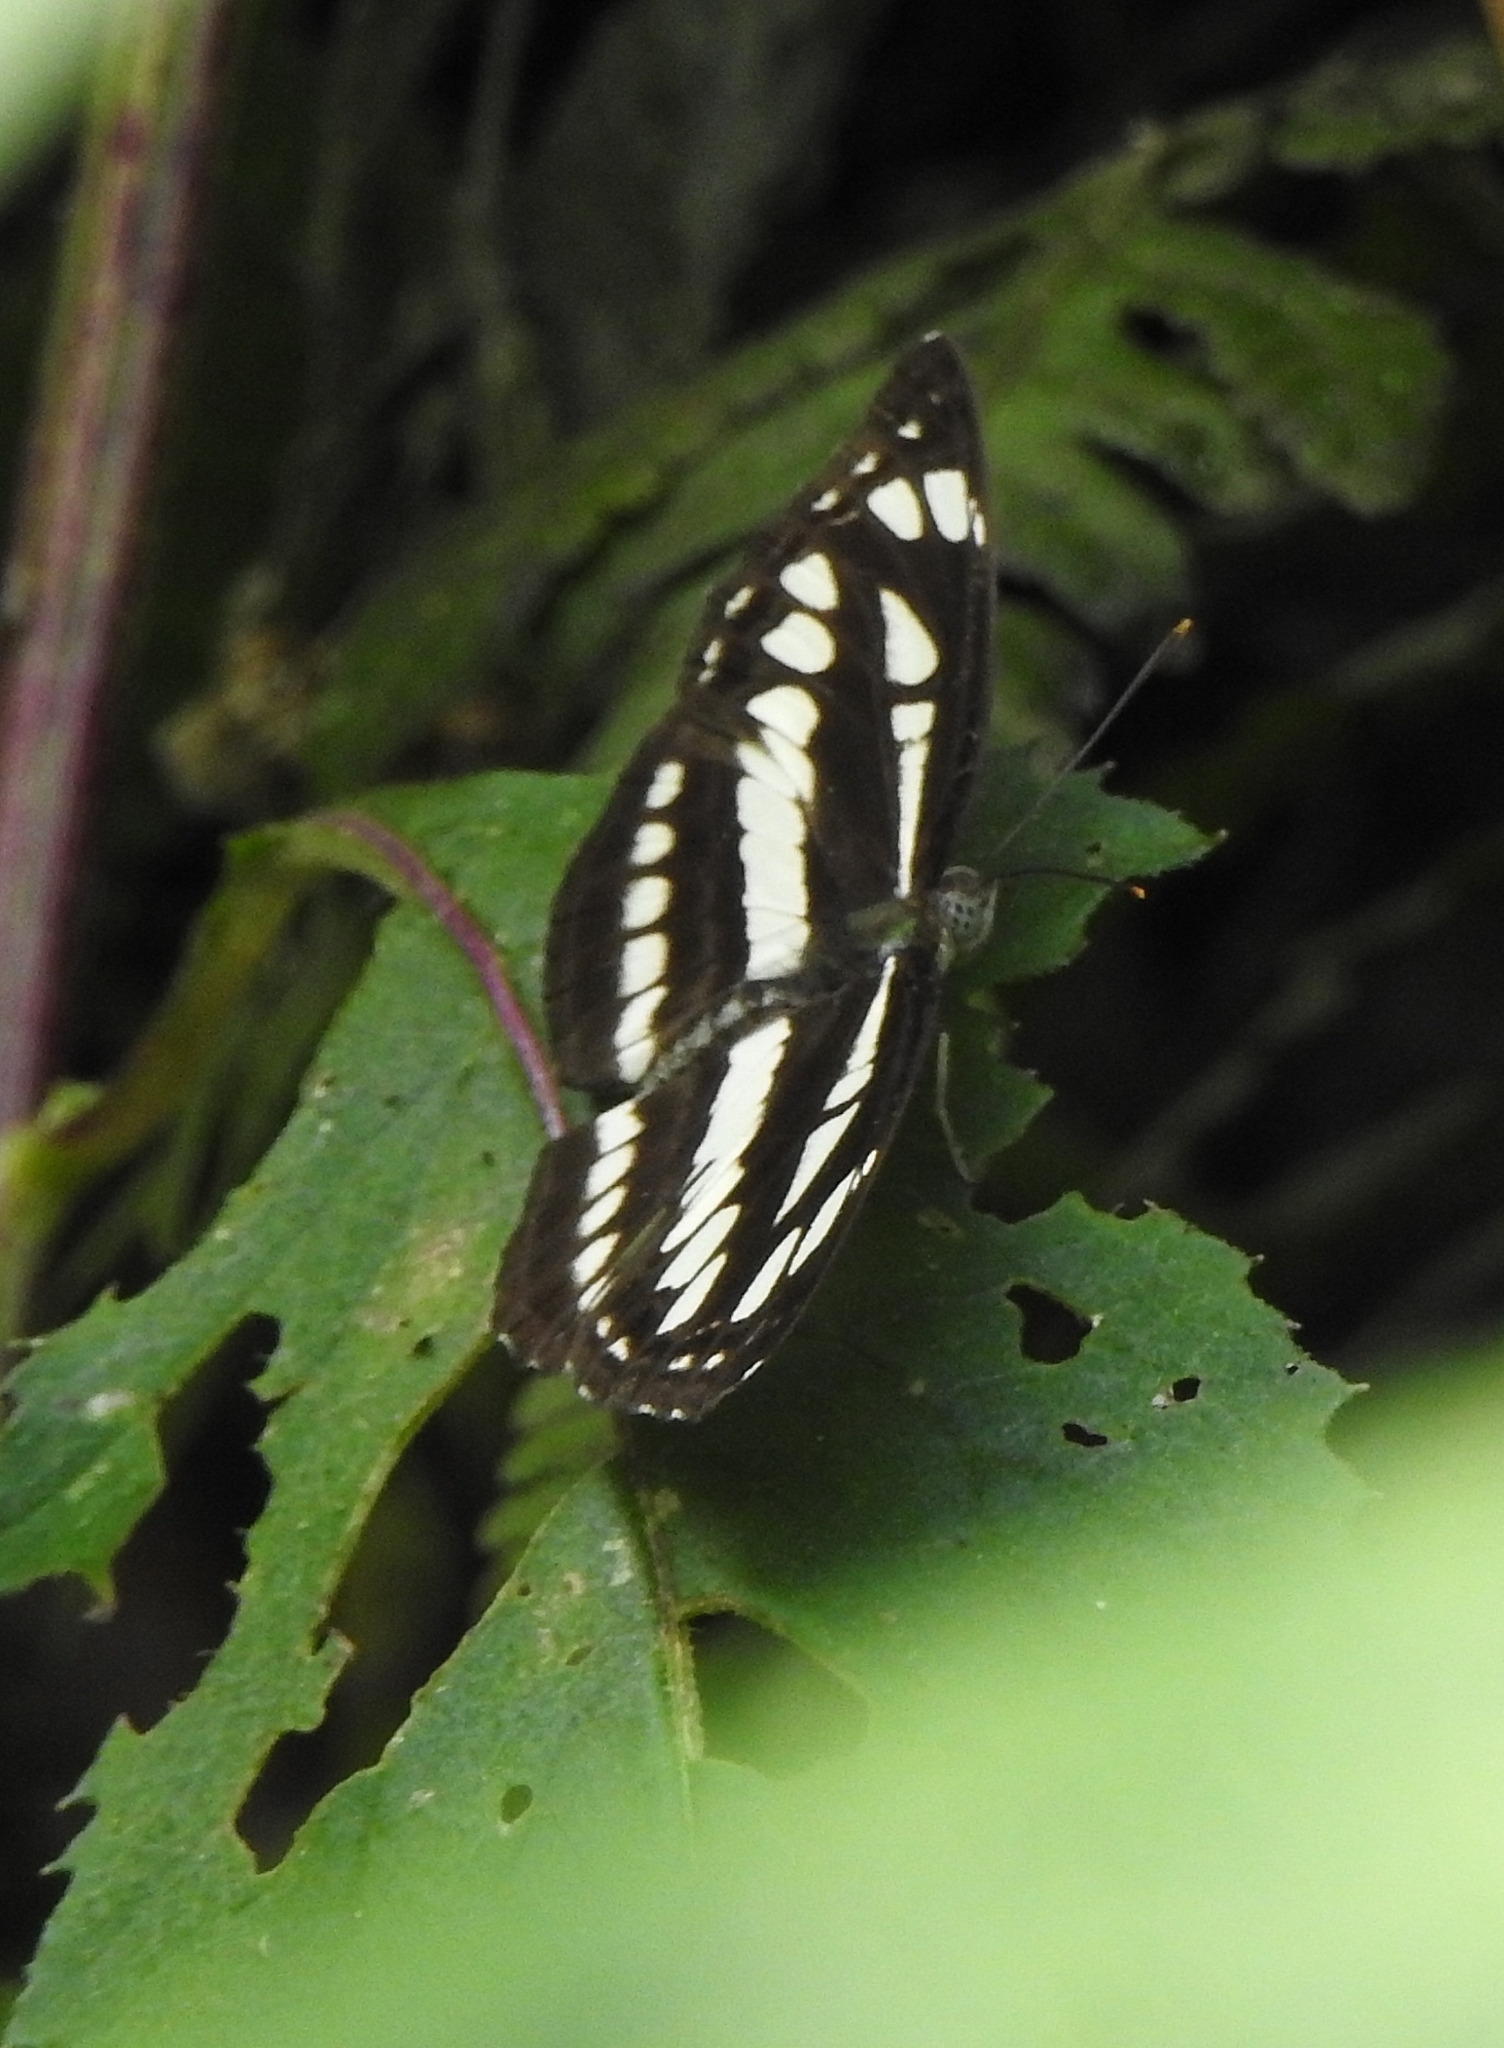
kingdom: Animalia
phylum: Arthropoda
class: Insecta
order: Lepidoptera
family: Nymphalidae
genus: Neptis
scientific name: Neptis hylas
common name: Common sailer
